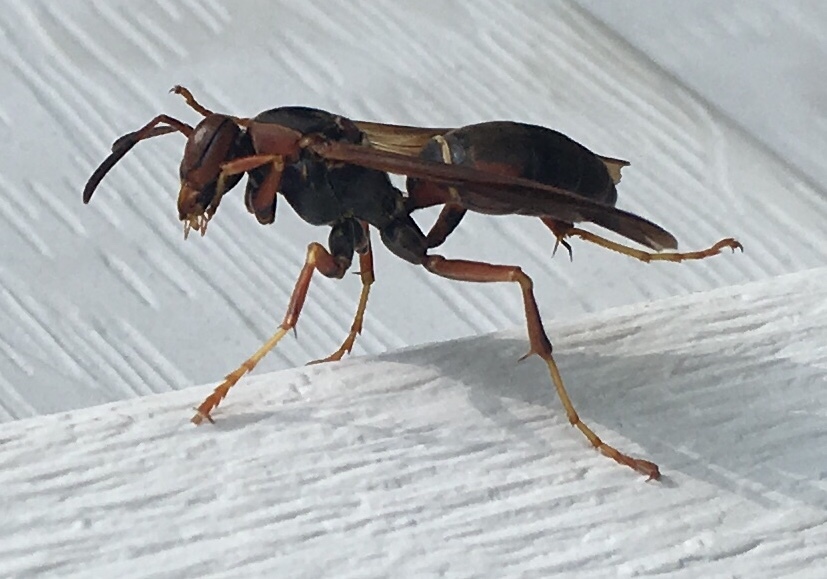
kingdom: Animalia
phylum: Arthropoda
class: Insecta
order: Hymenoptera
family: Eumenidae
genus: Polistes
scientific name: Polistes fuscatus
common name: Dark paper wasp
